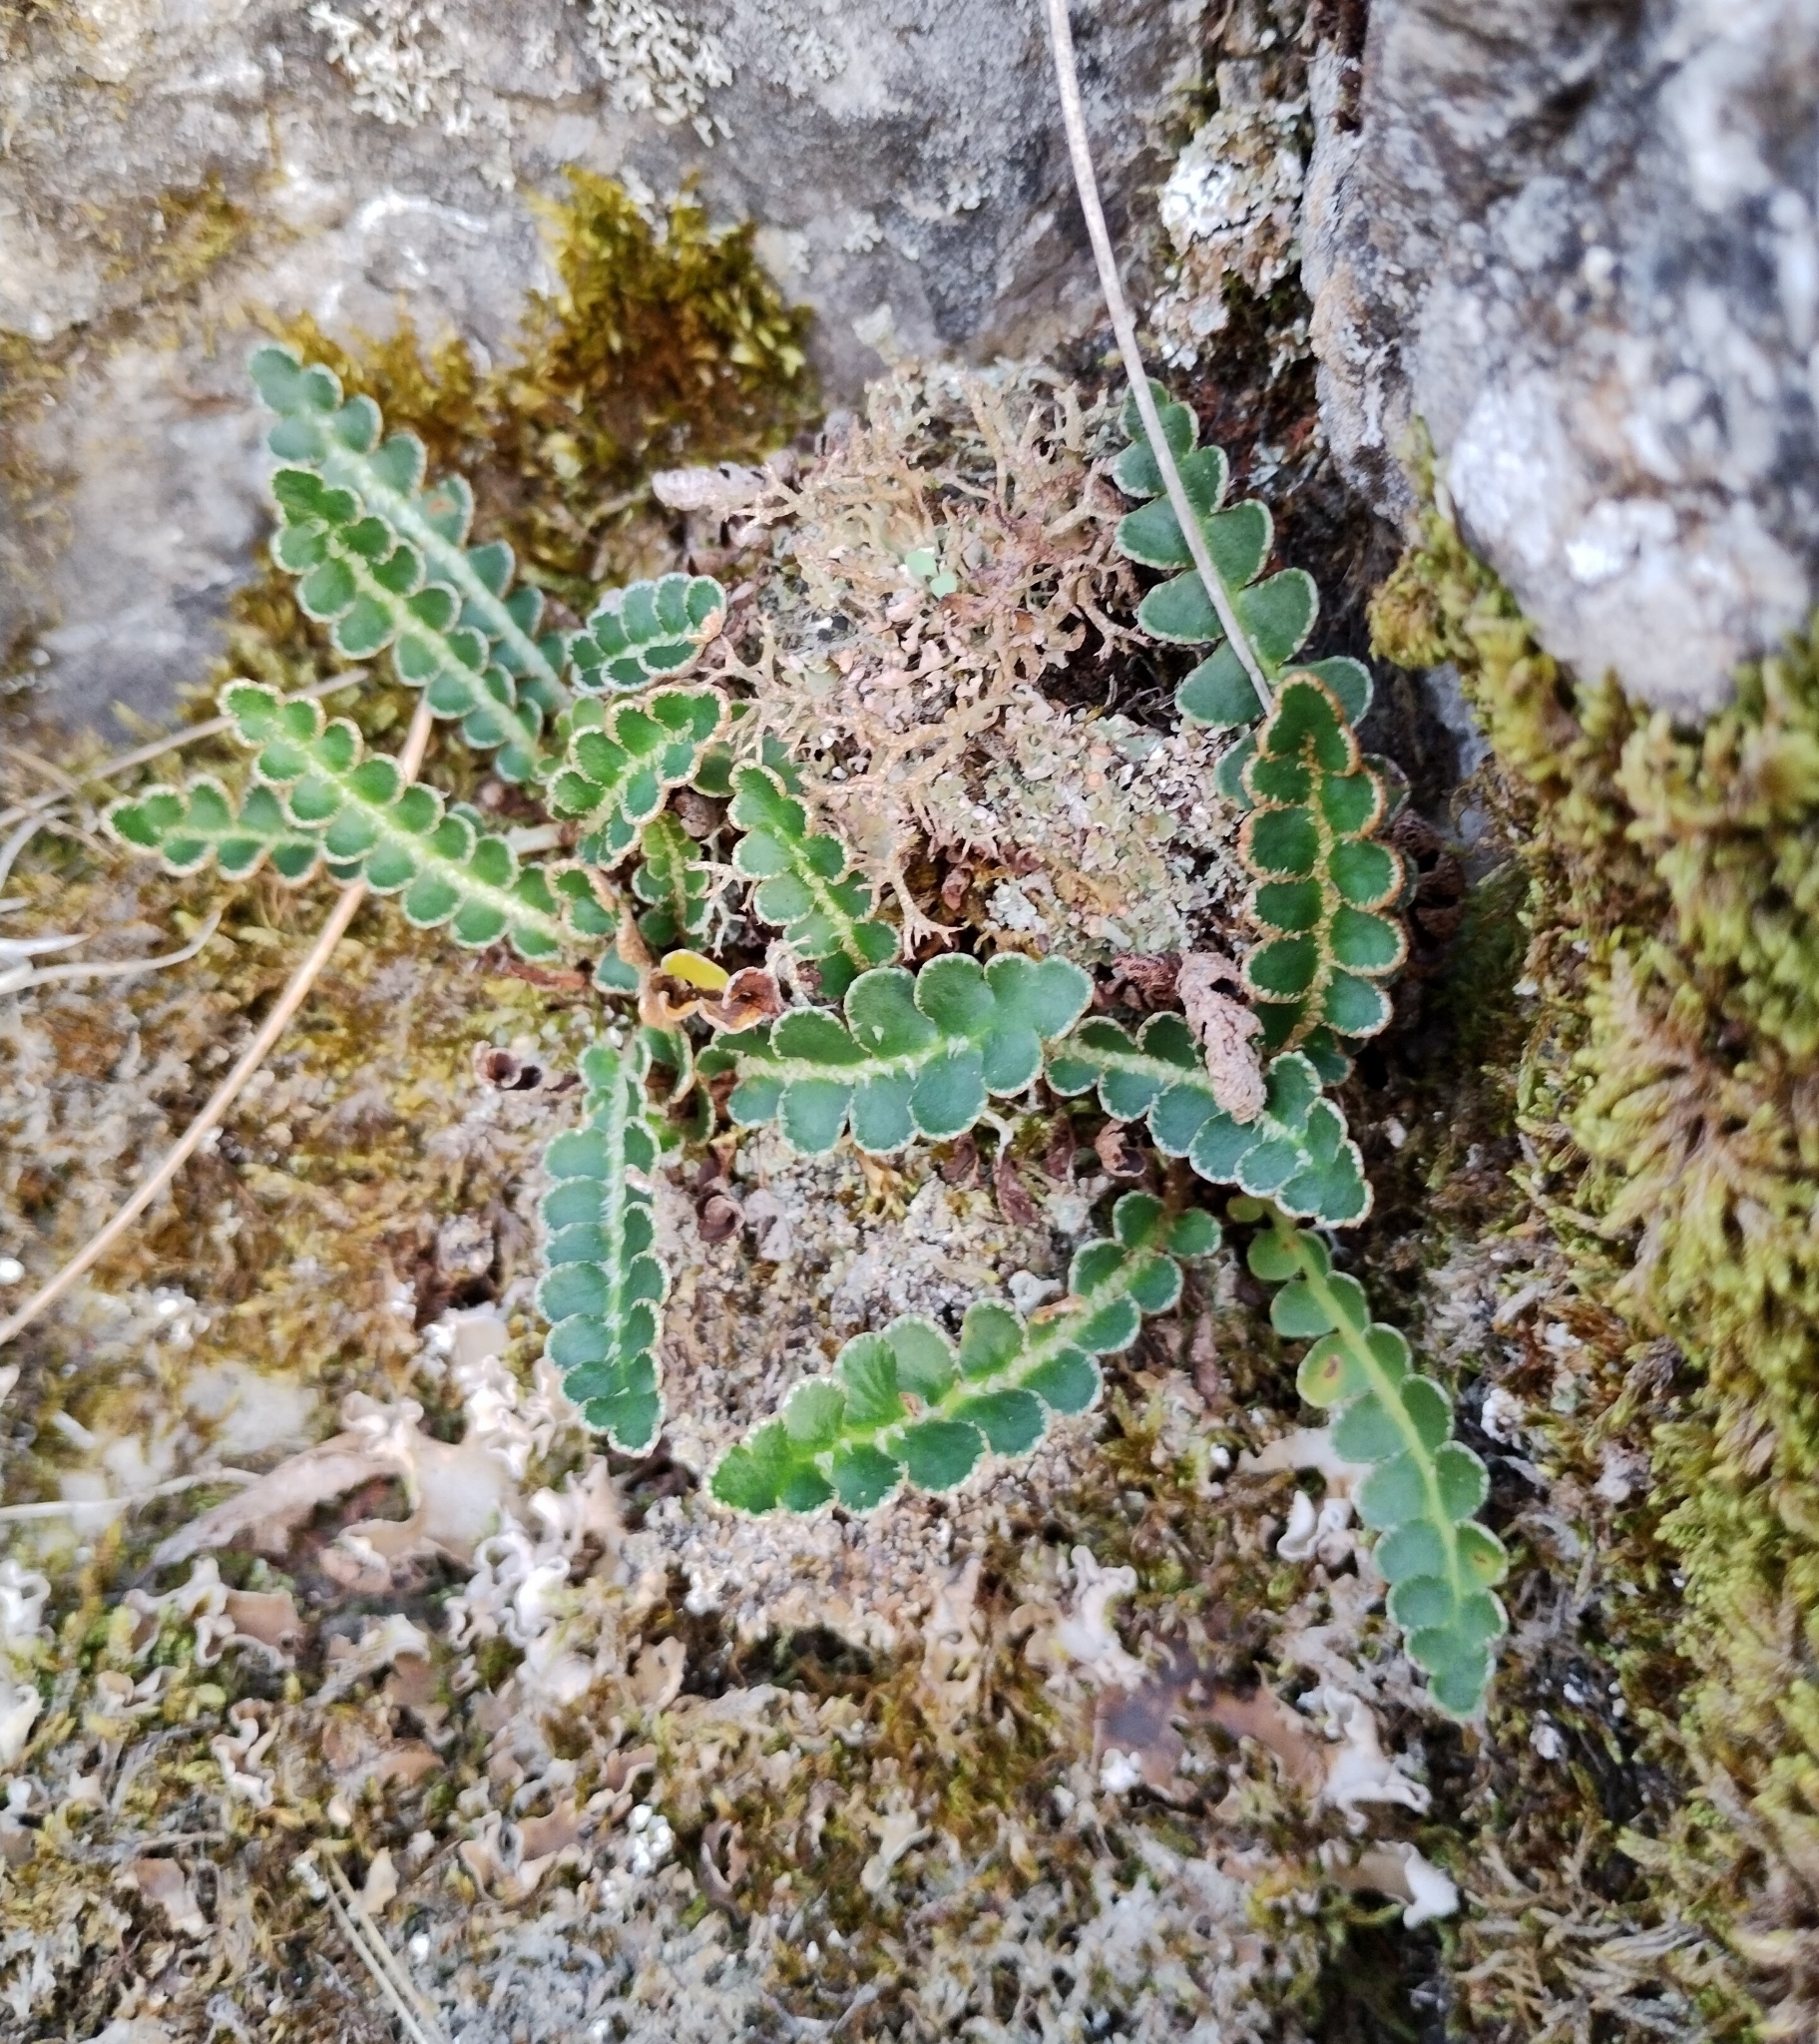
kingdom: Plantae
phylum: Tracheophyta
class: Polypodiopsida
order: Polypodiales
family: Aspleniaceae
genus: Asplenium
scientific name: Asplenium ceterach
